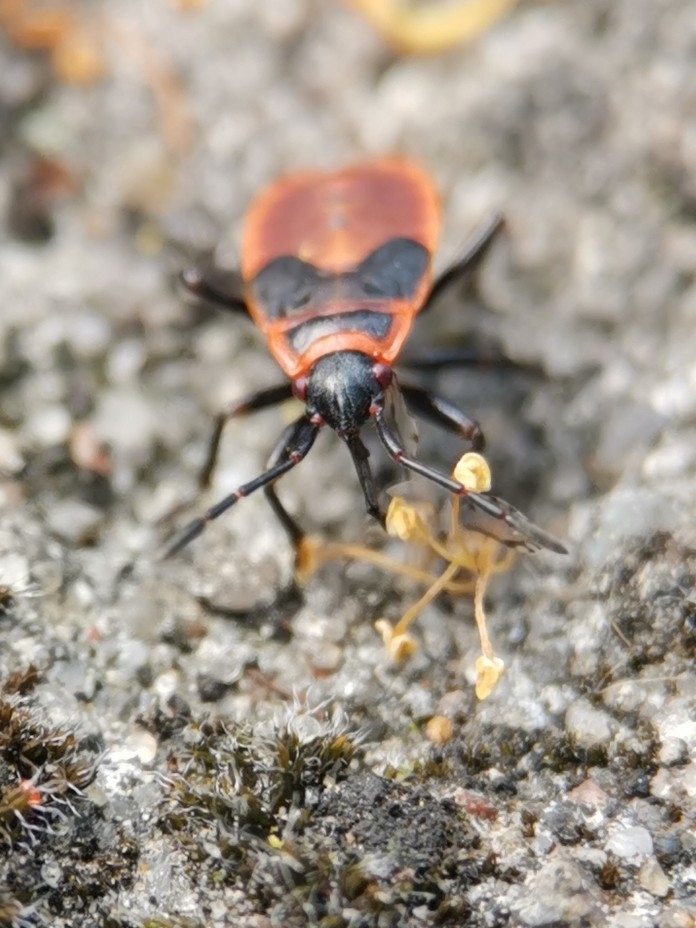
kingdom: Animalia
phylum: Arthropoda
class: Insecta
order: Hemiptera
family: Pyrrhocoridae
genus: Pyrrhocoris
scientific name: Pyrrhocoris apterus
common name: Firebug
